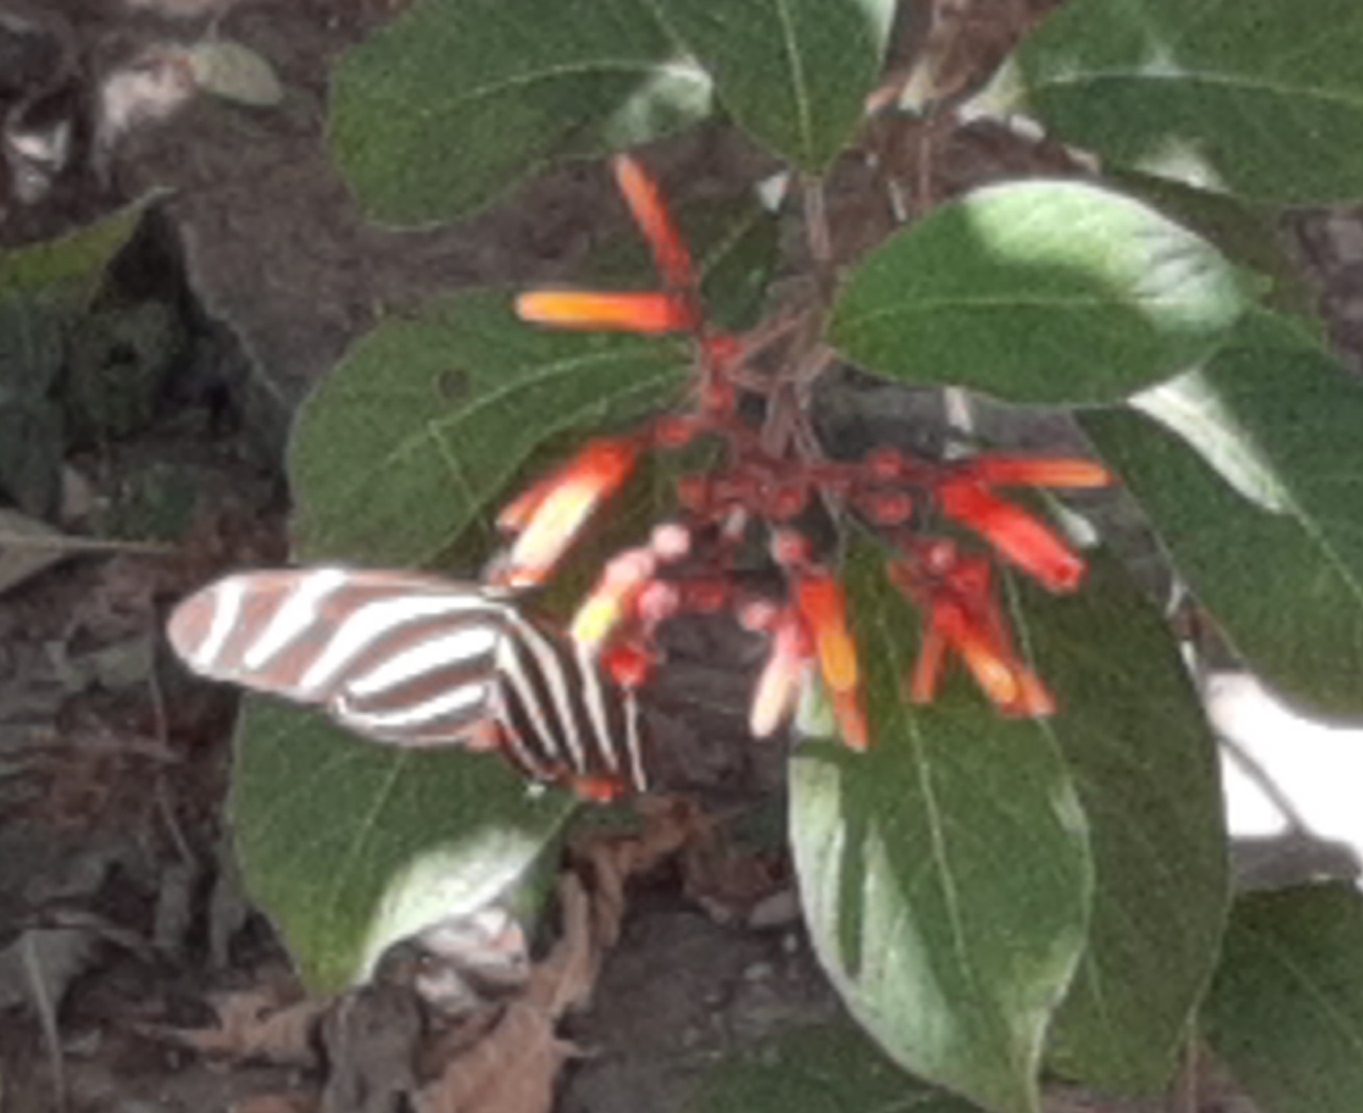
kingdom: Animalia
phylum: Arthropoda
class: Insecta
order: Lepidoptera
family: Nymphalidae
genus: Heliconius
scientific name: Heliconius charithonia
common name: Zebra long wing
